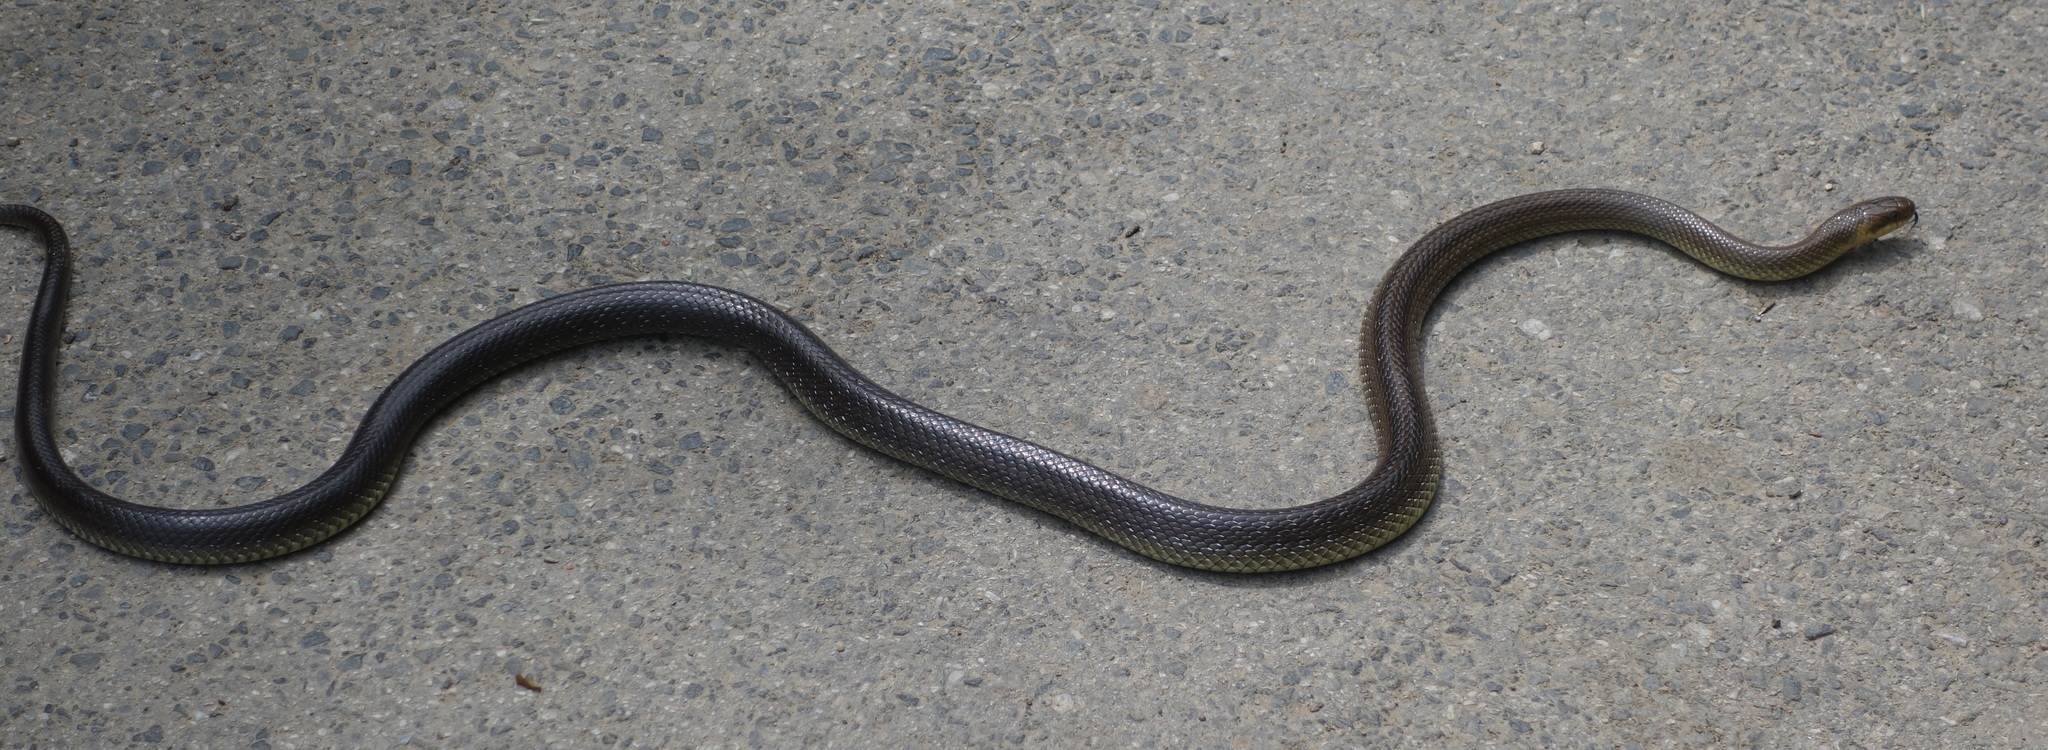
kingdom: Animalia
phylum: Chordata
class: Squamata
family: Colubridae
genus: Zamenis
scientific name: Zamenis longissimus
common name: Aesculapean snake
